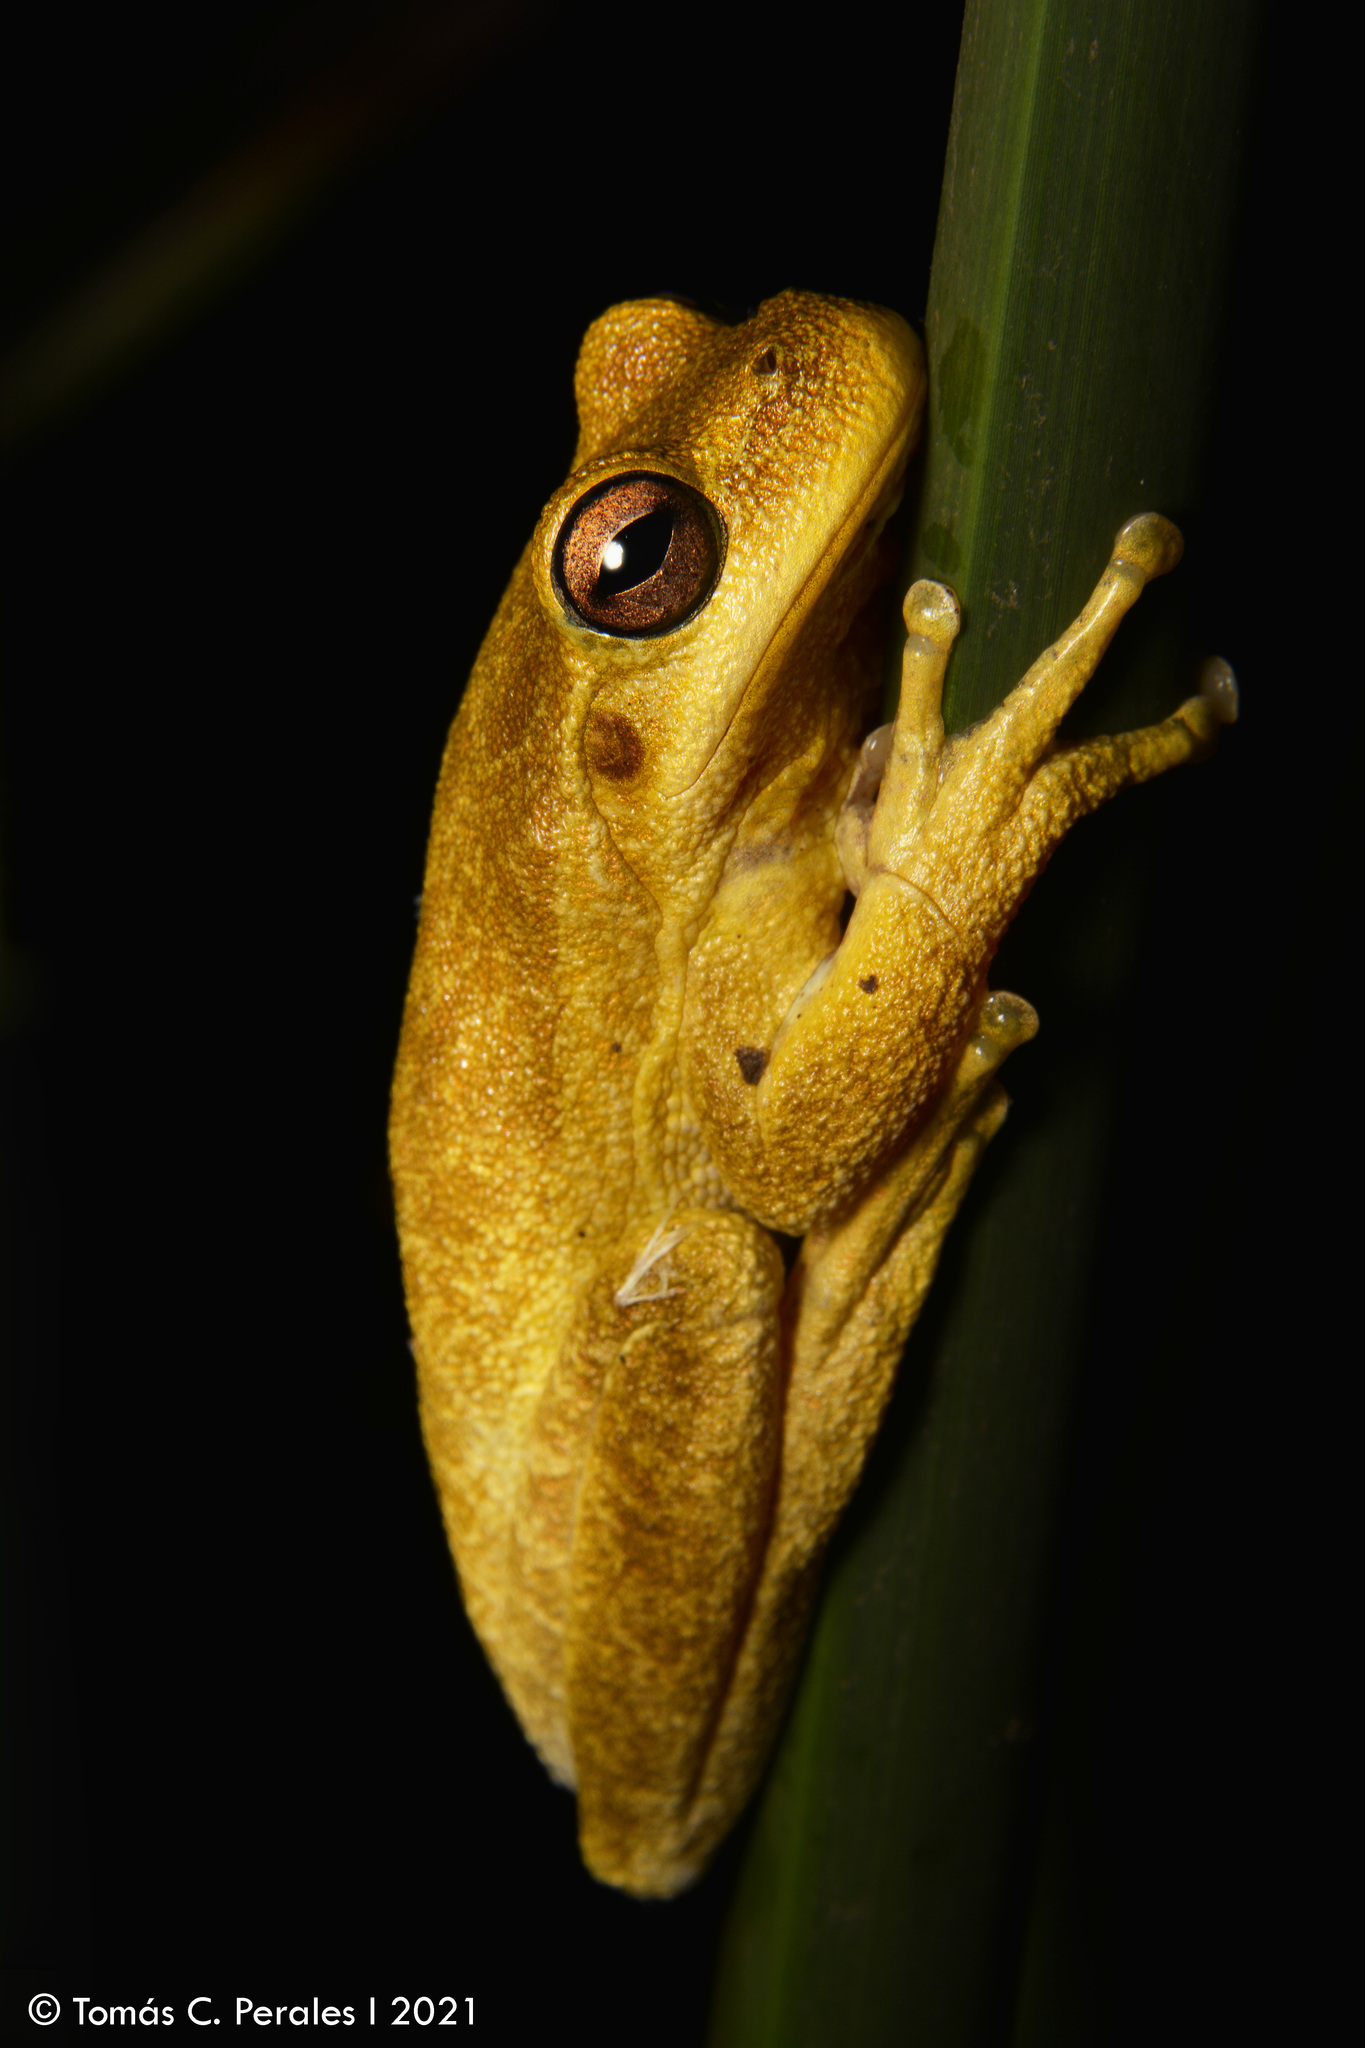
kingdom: Animalia
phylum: Chordata
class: Amphibia
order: Anura
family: Hylidae
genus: Boana
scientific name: Boana cordobae
